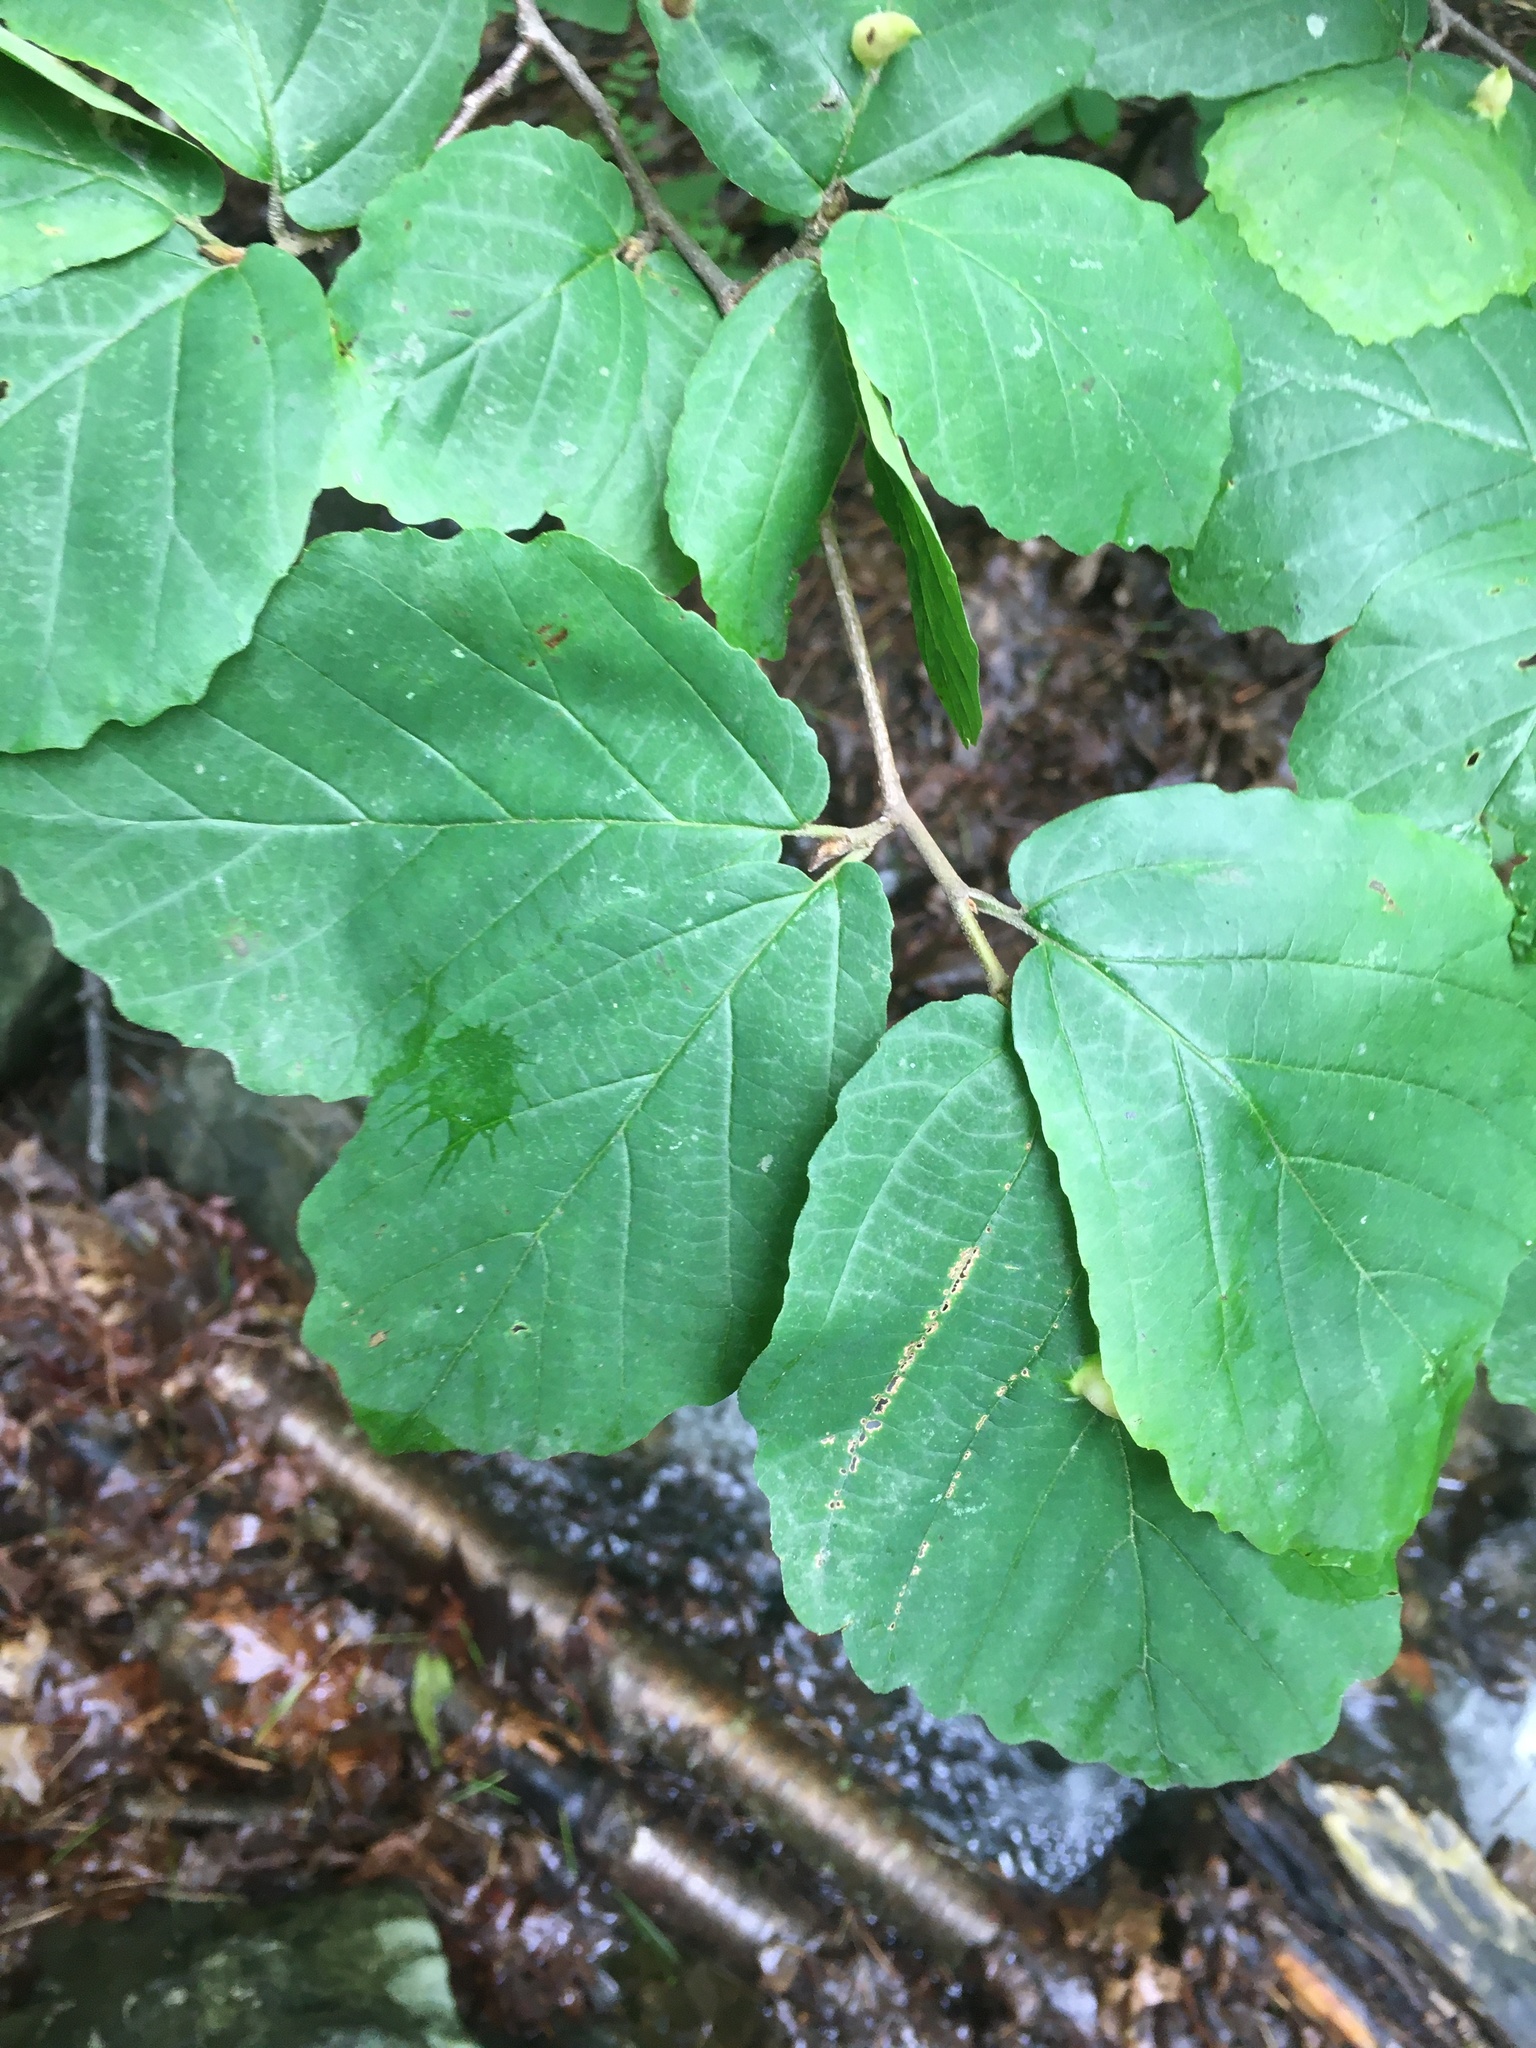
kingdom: Plantae
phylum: Tracheophyta
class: Magnoliopsida
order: Saxifragales
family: Hamamelidaceae
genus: Hamamelis
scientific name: Hamamelis virginiana
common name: Witch-hazel
